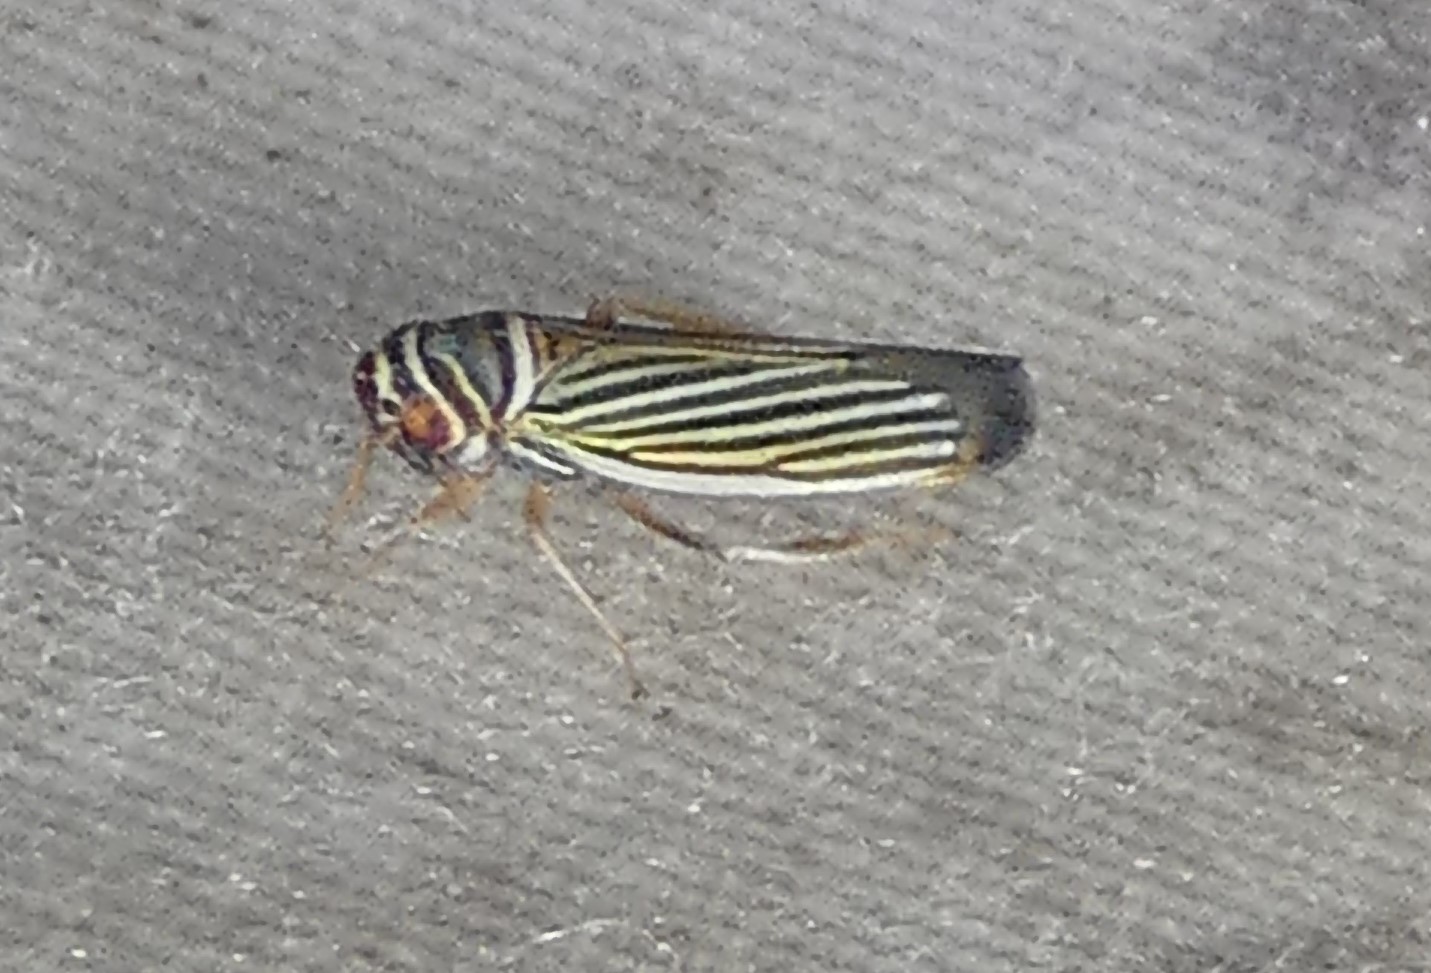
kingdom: Animalia
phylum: Arthropoda
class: Insecta
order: Hemiptera
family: Cicadellidae
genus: Tylozygus
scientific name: Tylozygus bifidus
